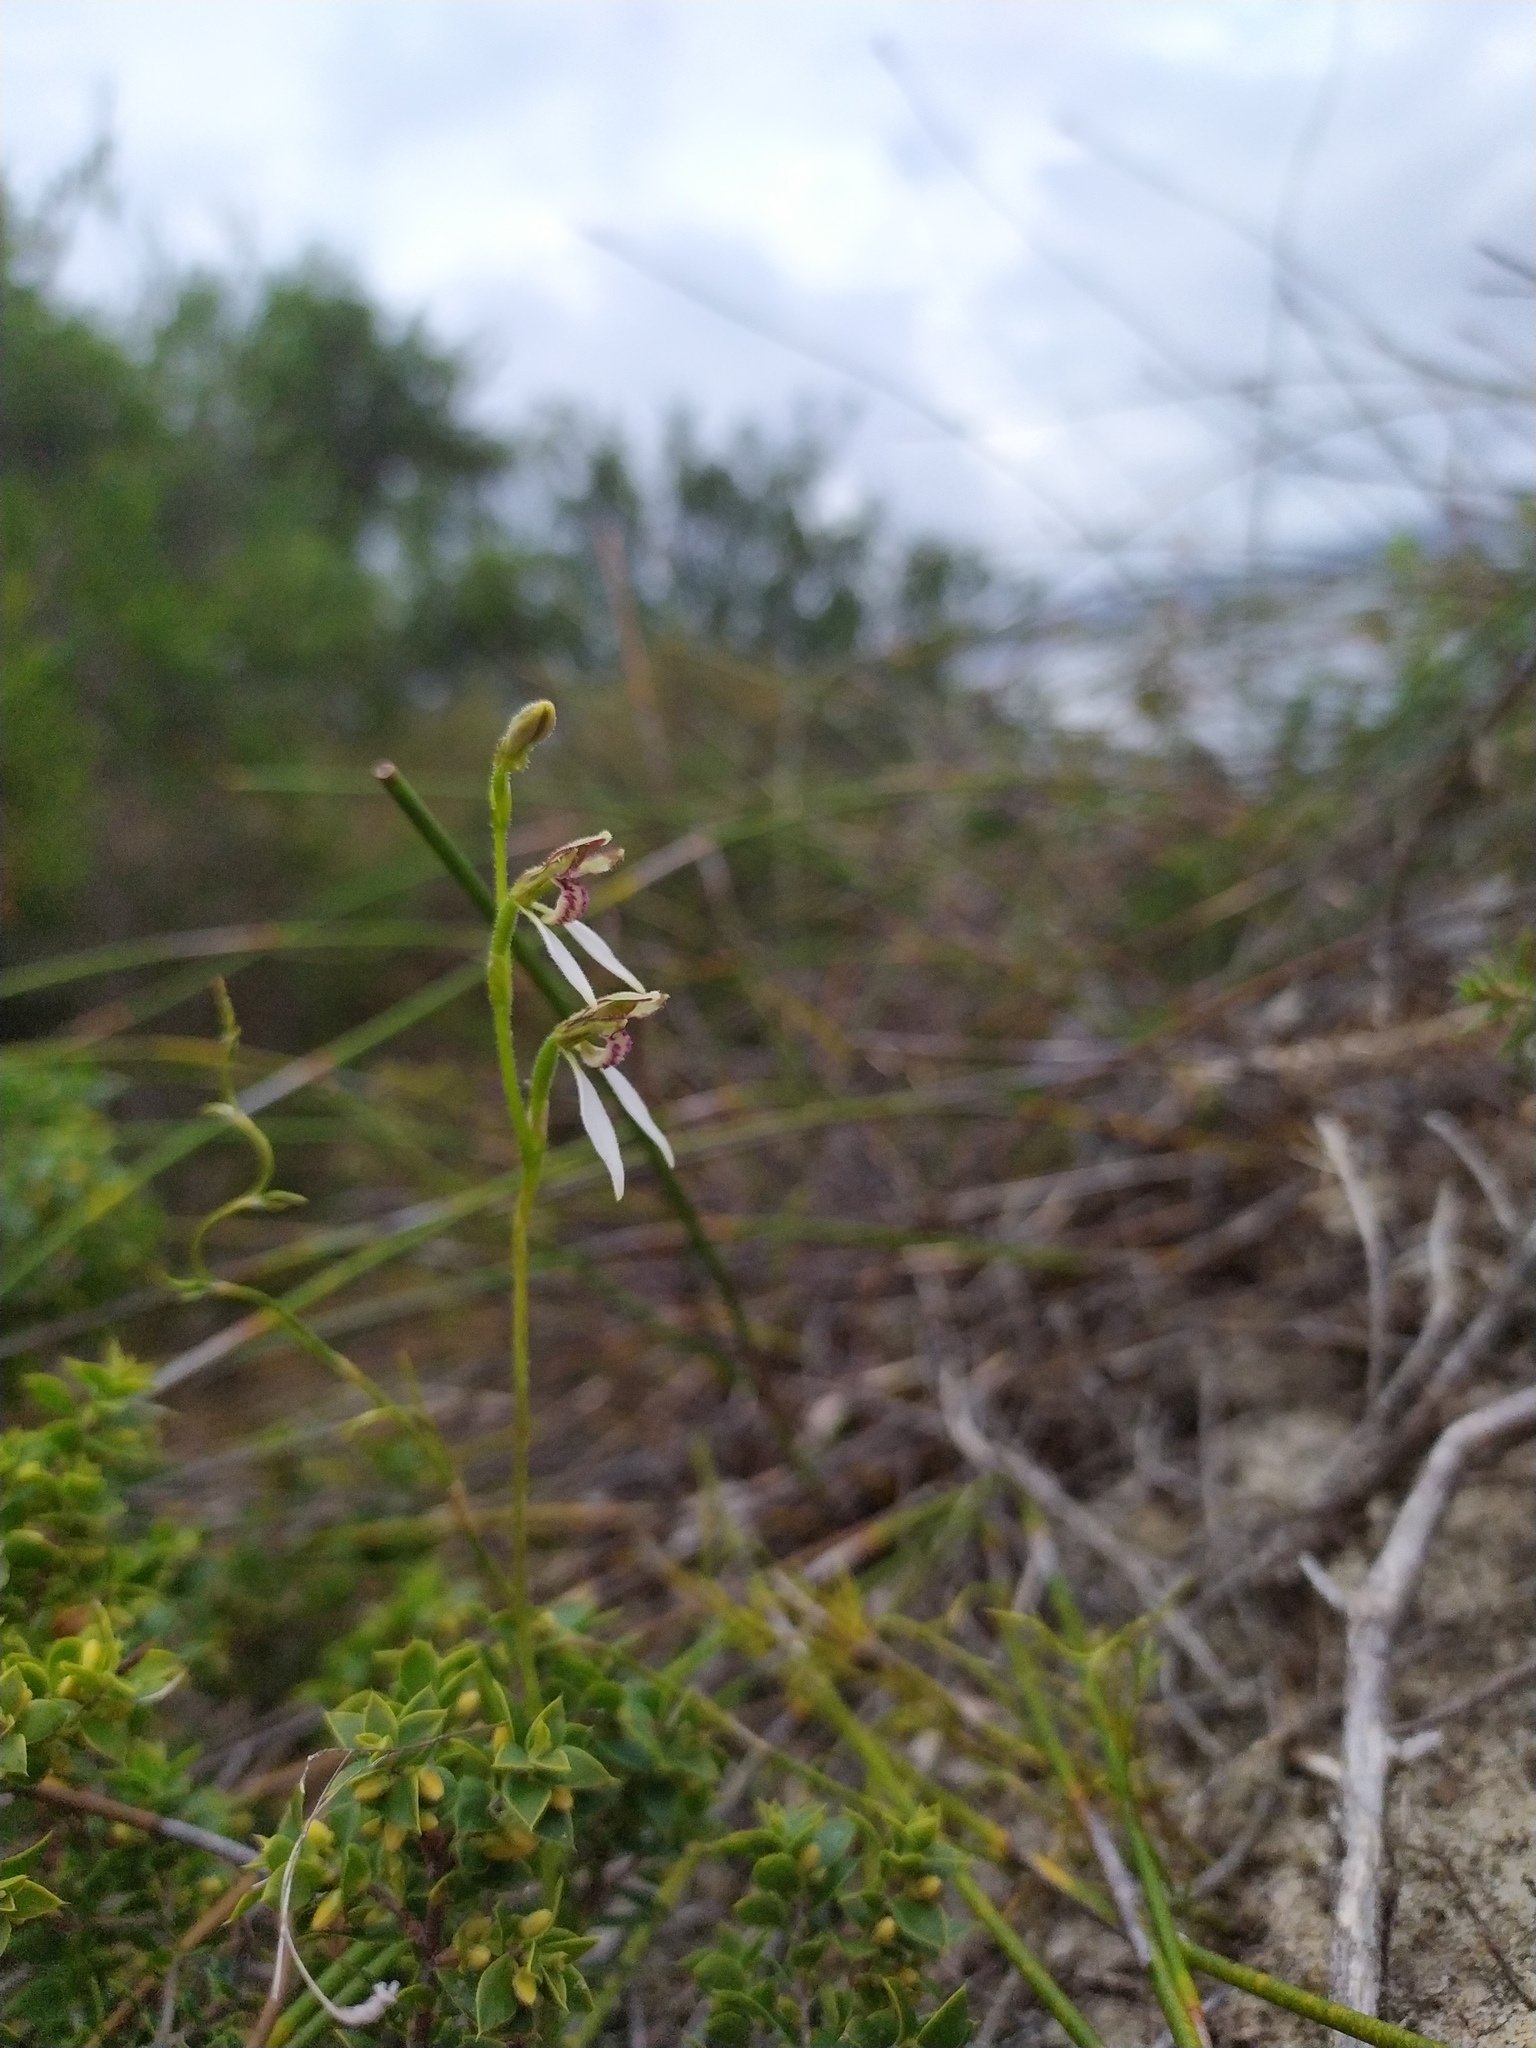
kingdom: Plantae
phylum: Tracheophyta
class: Liliopsida
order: Asparagales
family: Orchidaceae
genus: Eriochilus
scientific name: Eriochilus dilatatus
